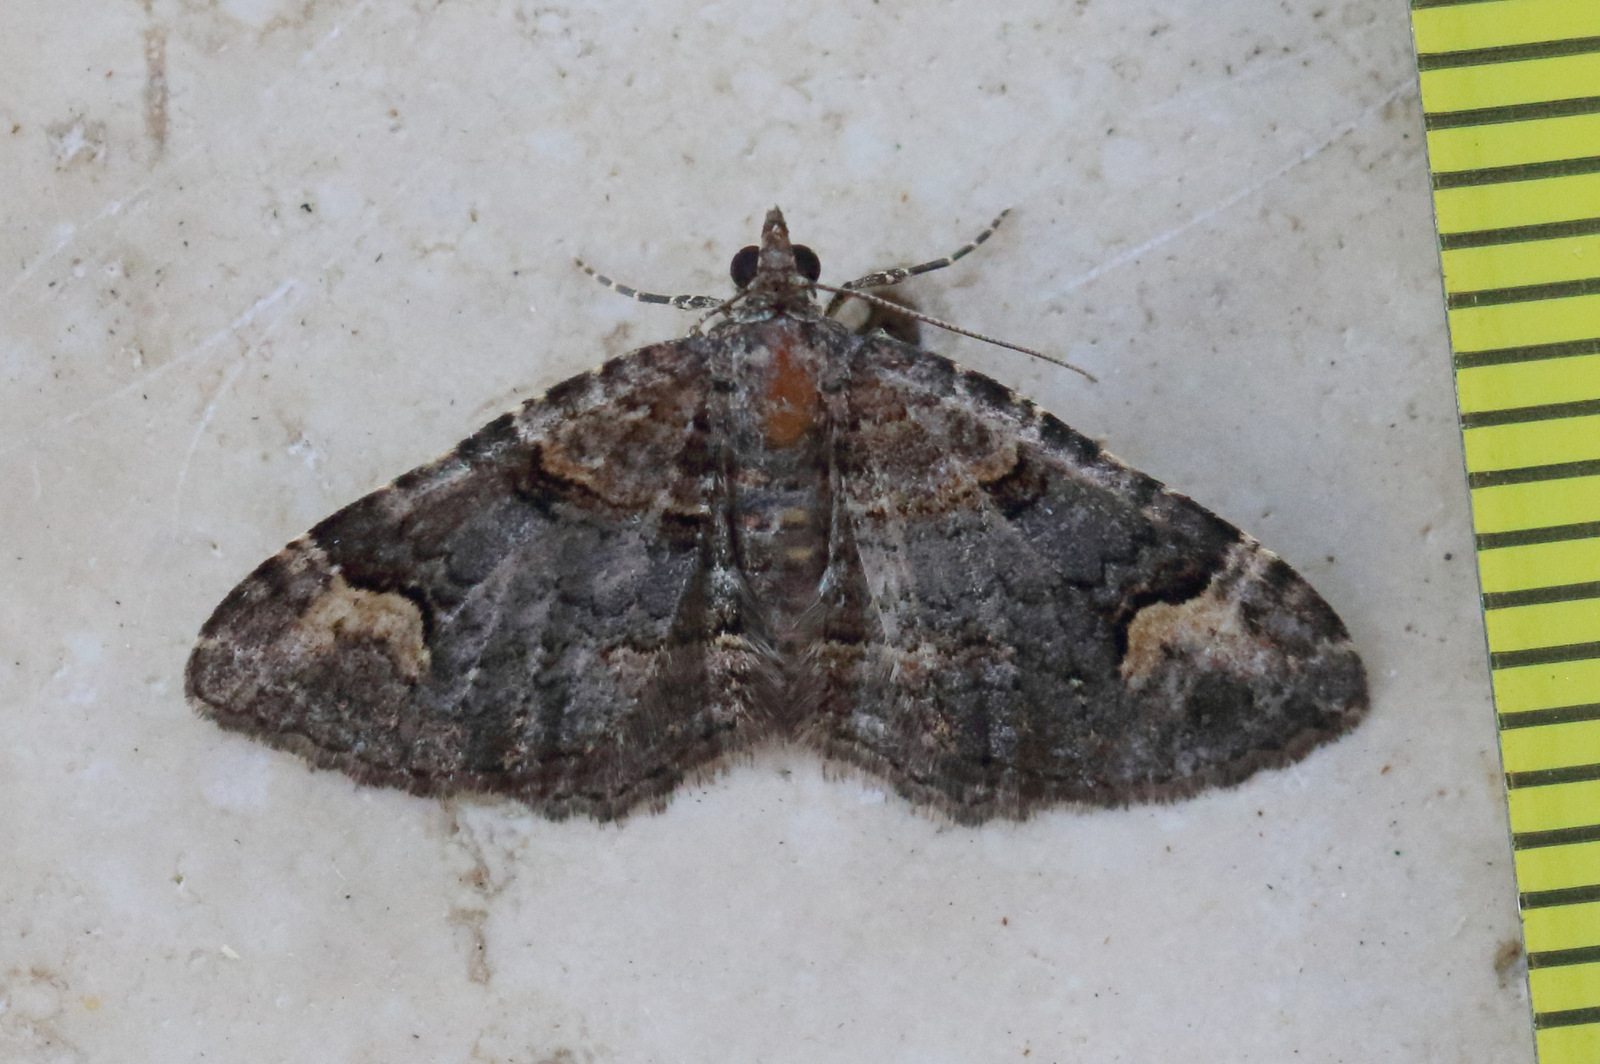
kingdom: Animalia
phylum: Arthropoda
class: Insecta
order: Lepidoptera
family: Geometridae
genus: Epyaxa
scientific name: Epyaxa sodaliata
